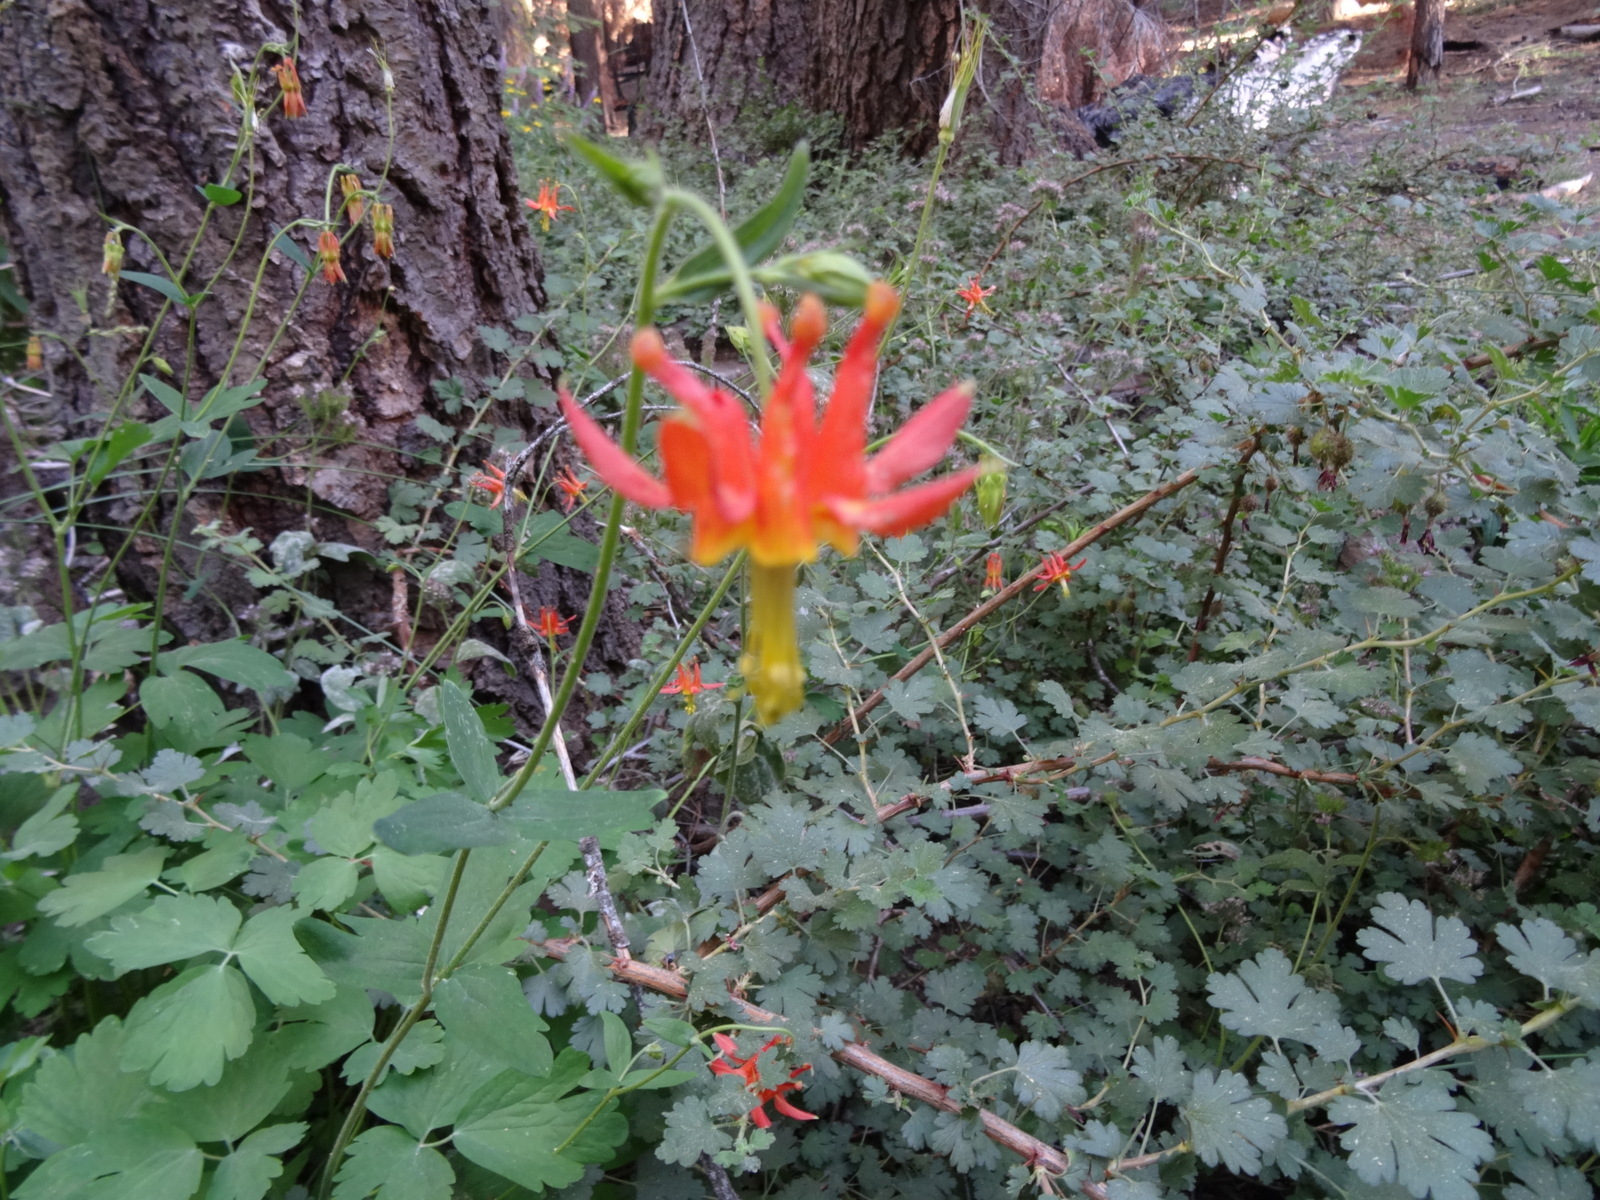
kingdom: Plantae
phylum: Tracheophyta
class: Magnoliopsida
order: Ranunculales
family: Ranunculaceae
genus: Aquilegia
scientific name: Aquilegia formosa
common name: Sitka columbine
